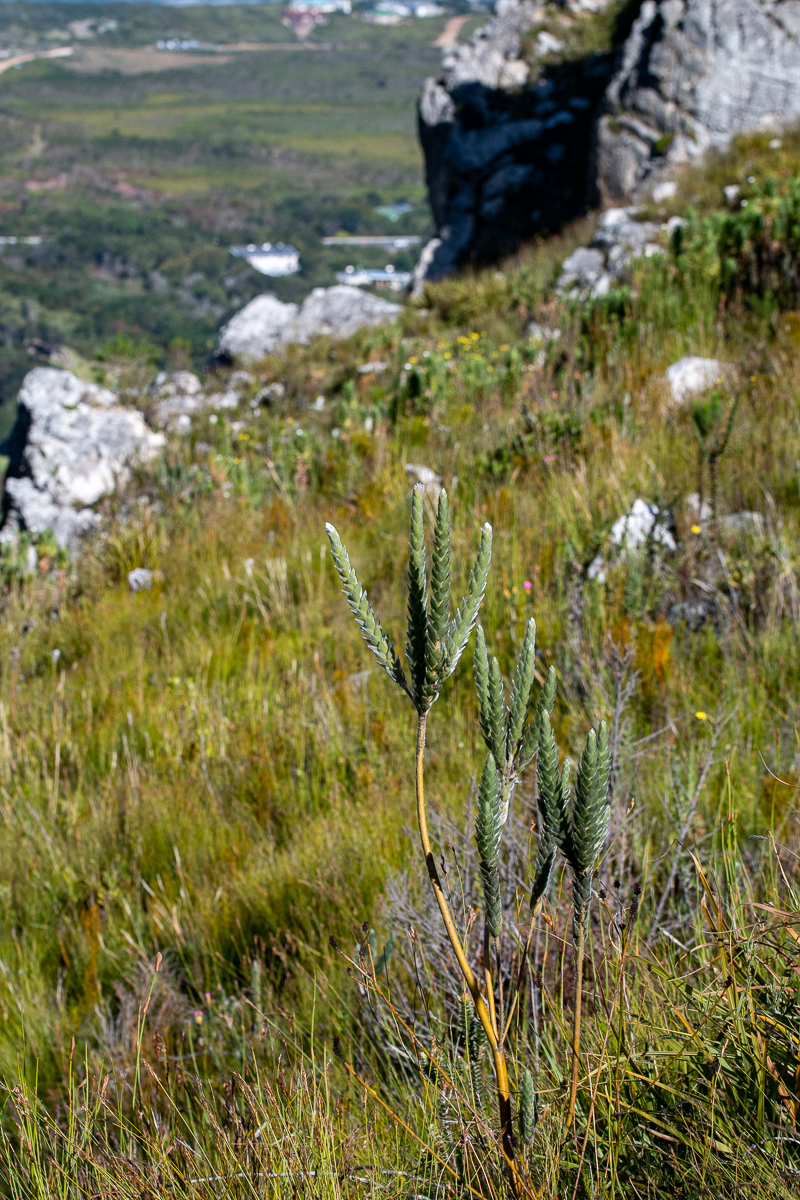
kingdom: Plantae
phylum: Tracheophyta
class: Magnoliopsida
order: Fabales
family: Fabaceae
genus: Liparia
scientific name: Liparia vestita
